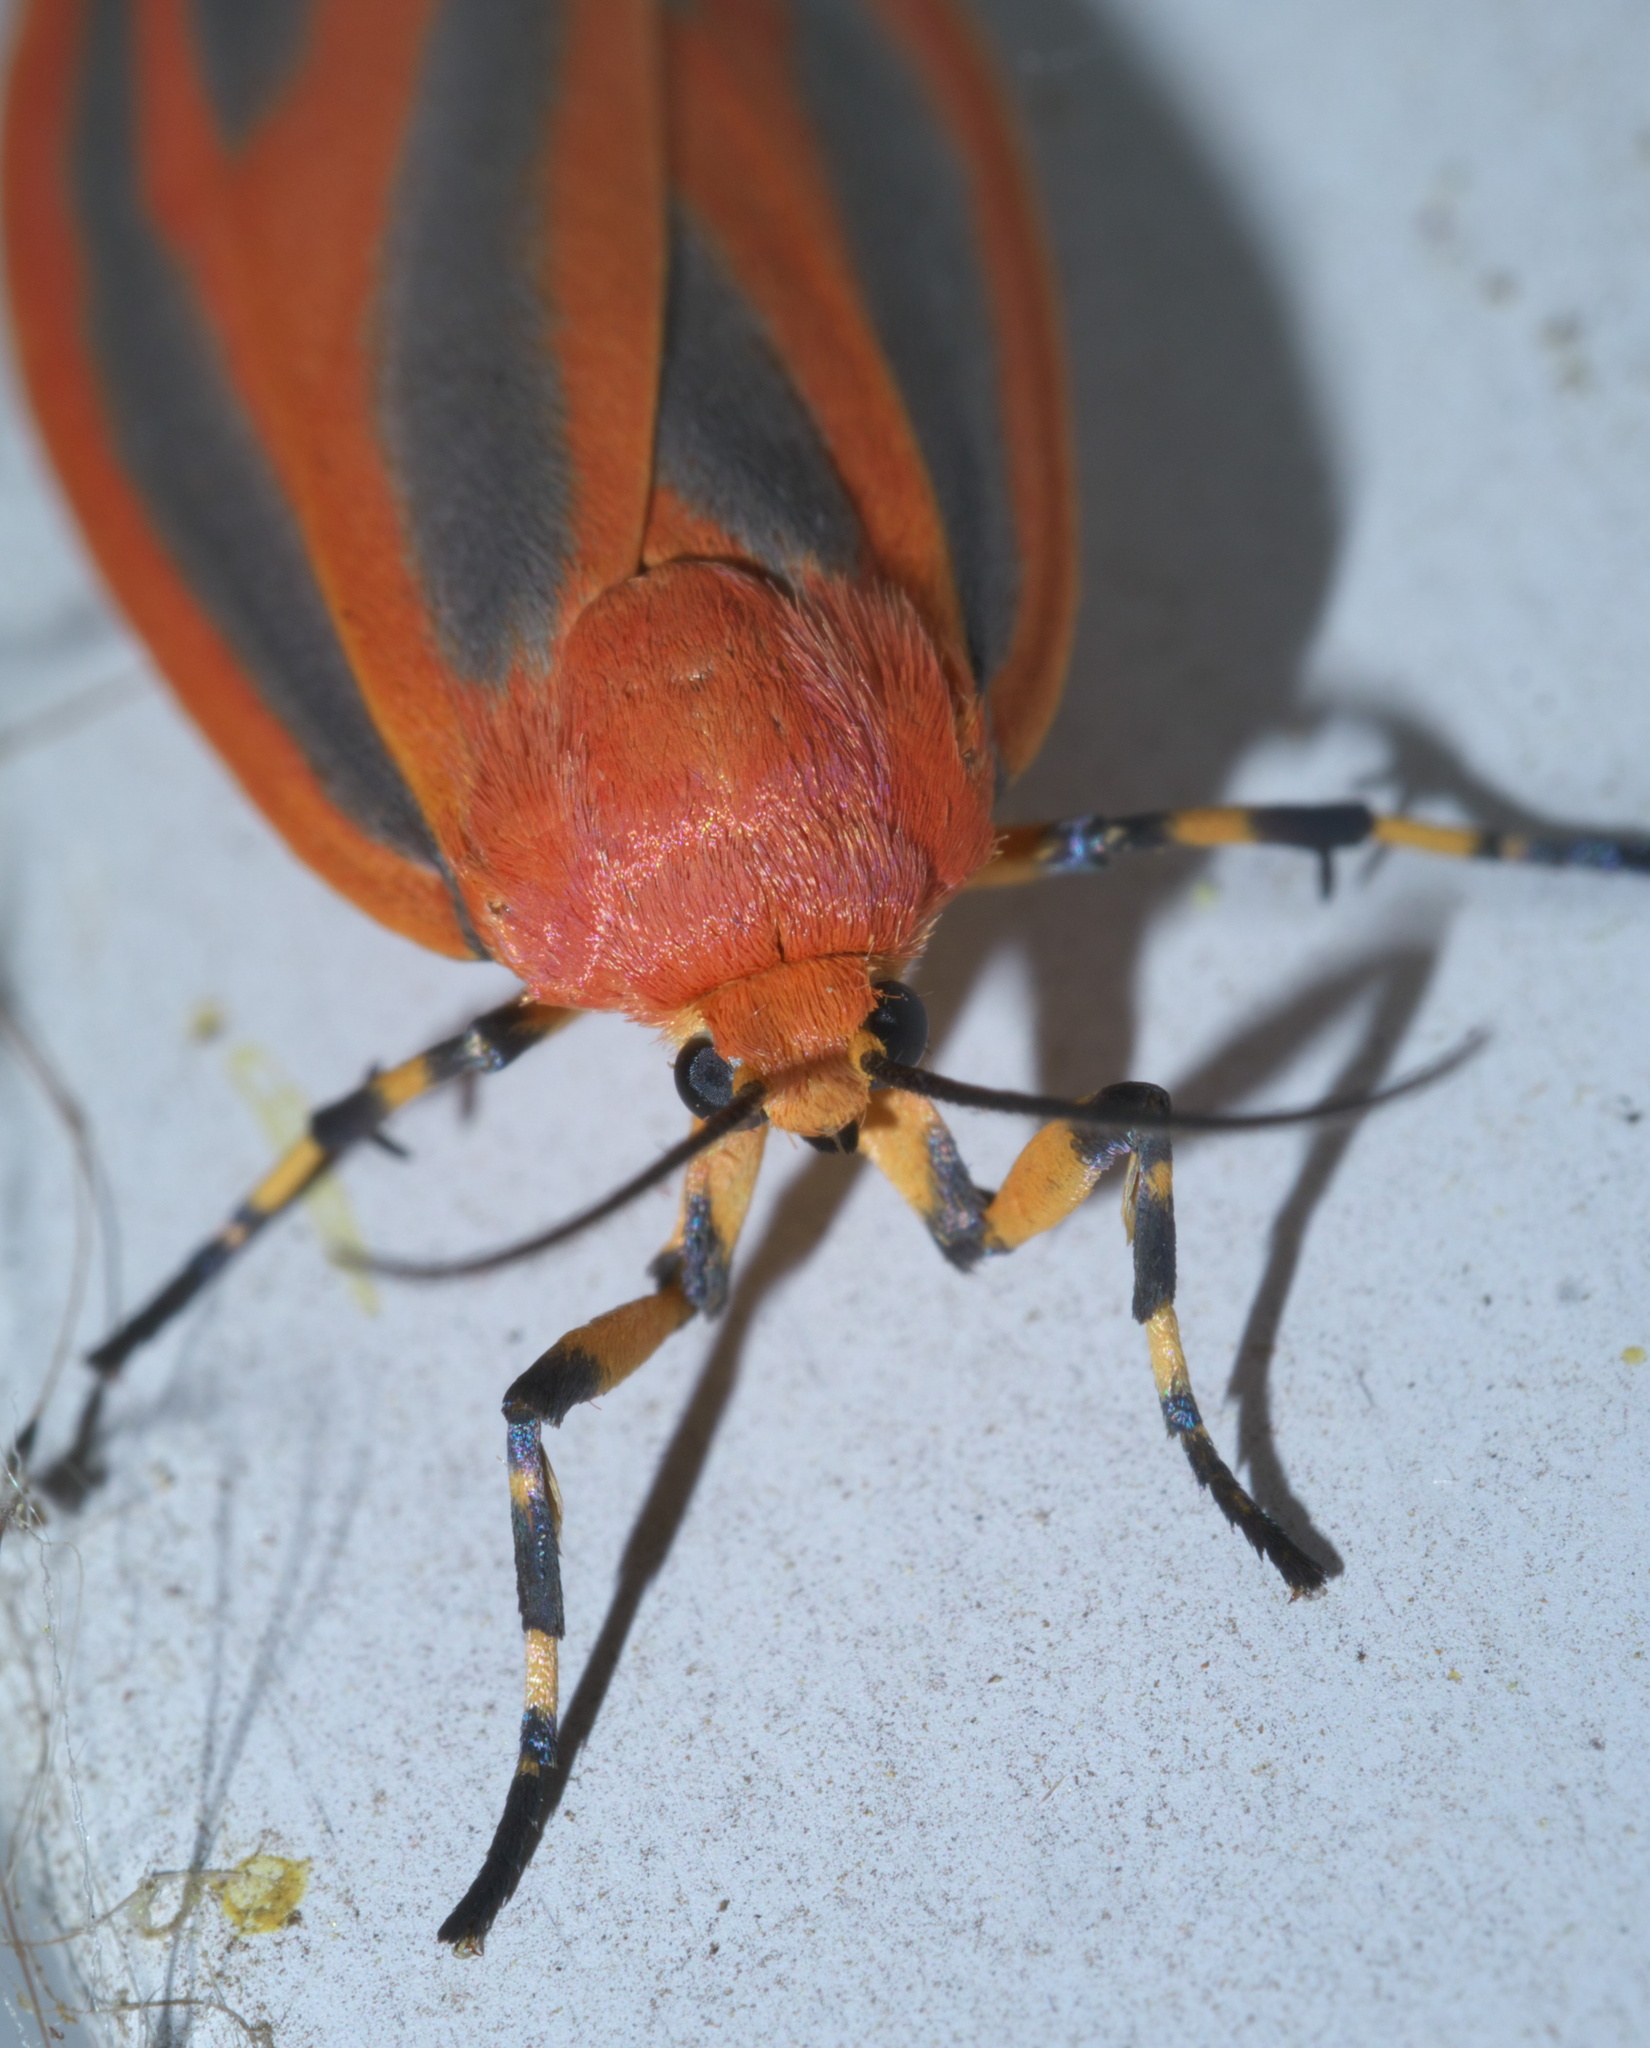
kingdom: Animalia
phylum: Arthropoda
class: Insecta
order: Lepidoptera
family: Erebidae
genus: Hypoprepia
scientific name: Hypoprepia miniata
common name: Scarlet-winged lichen moth
